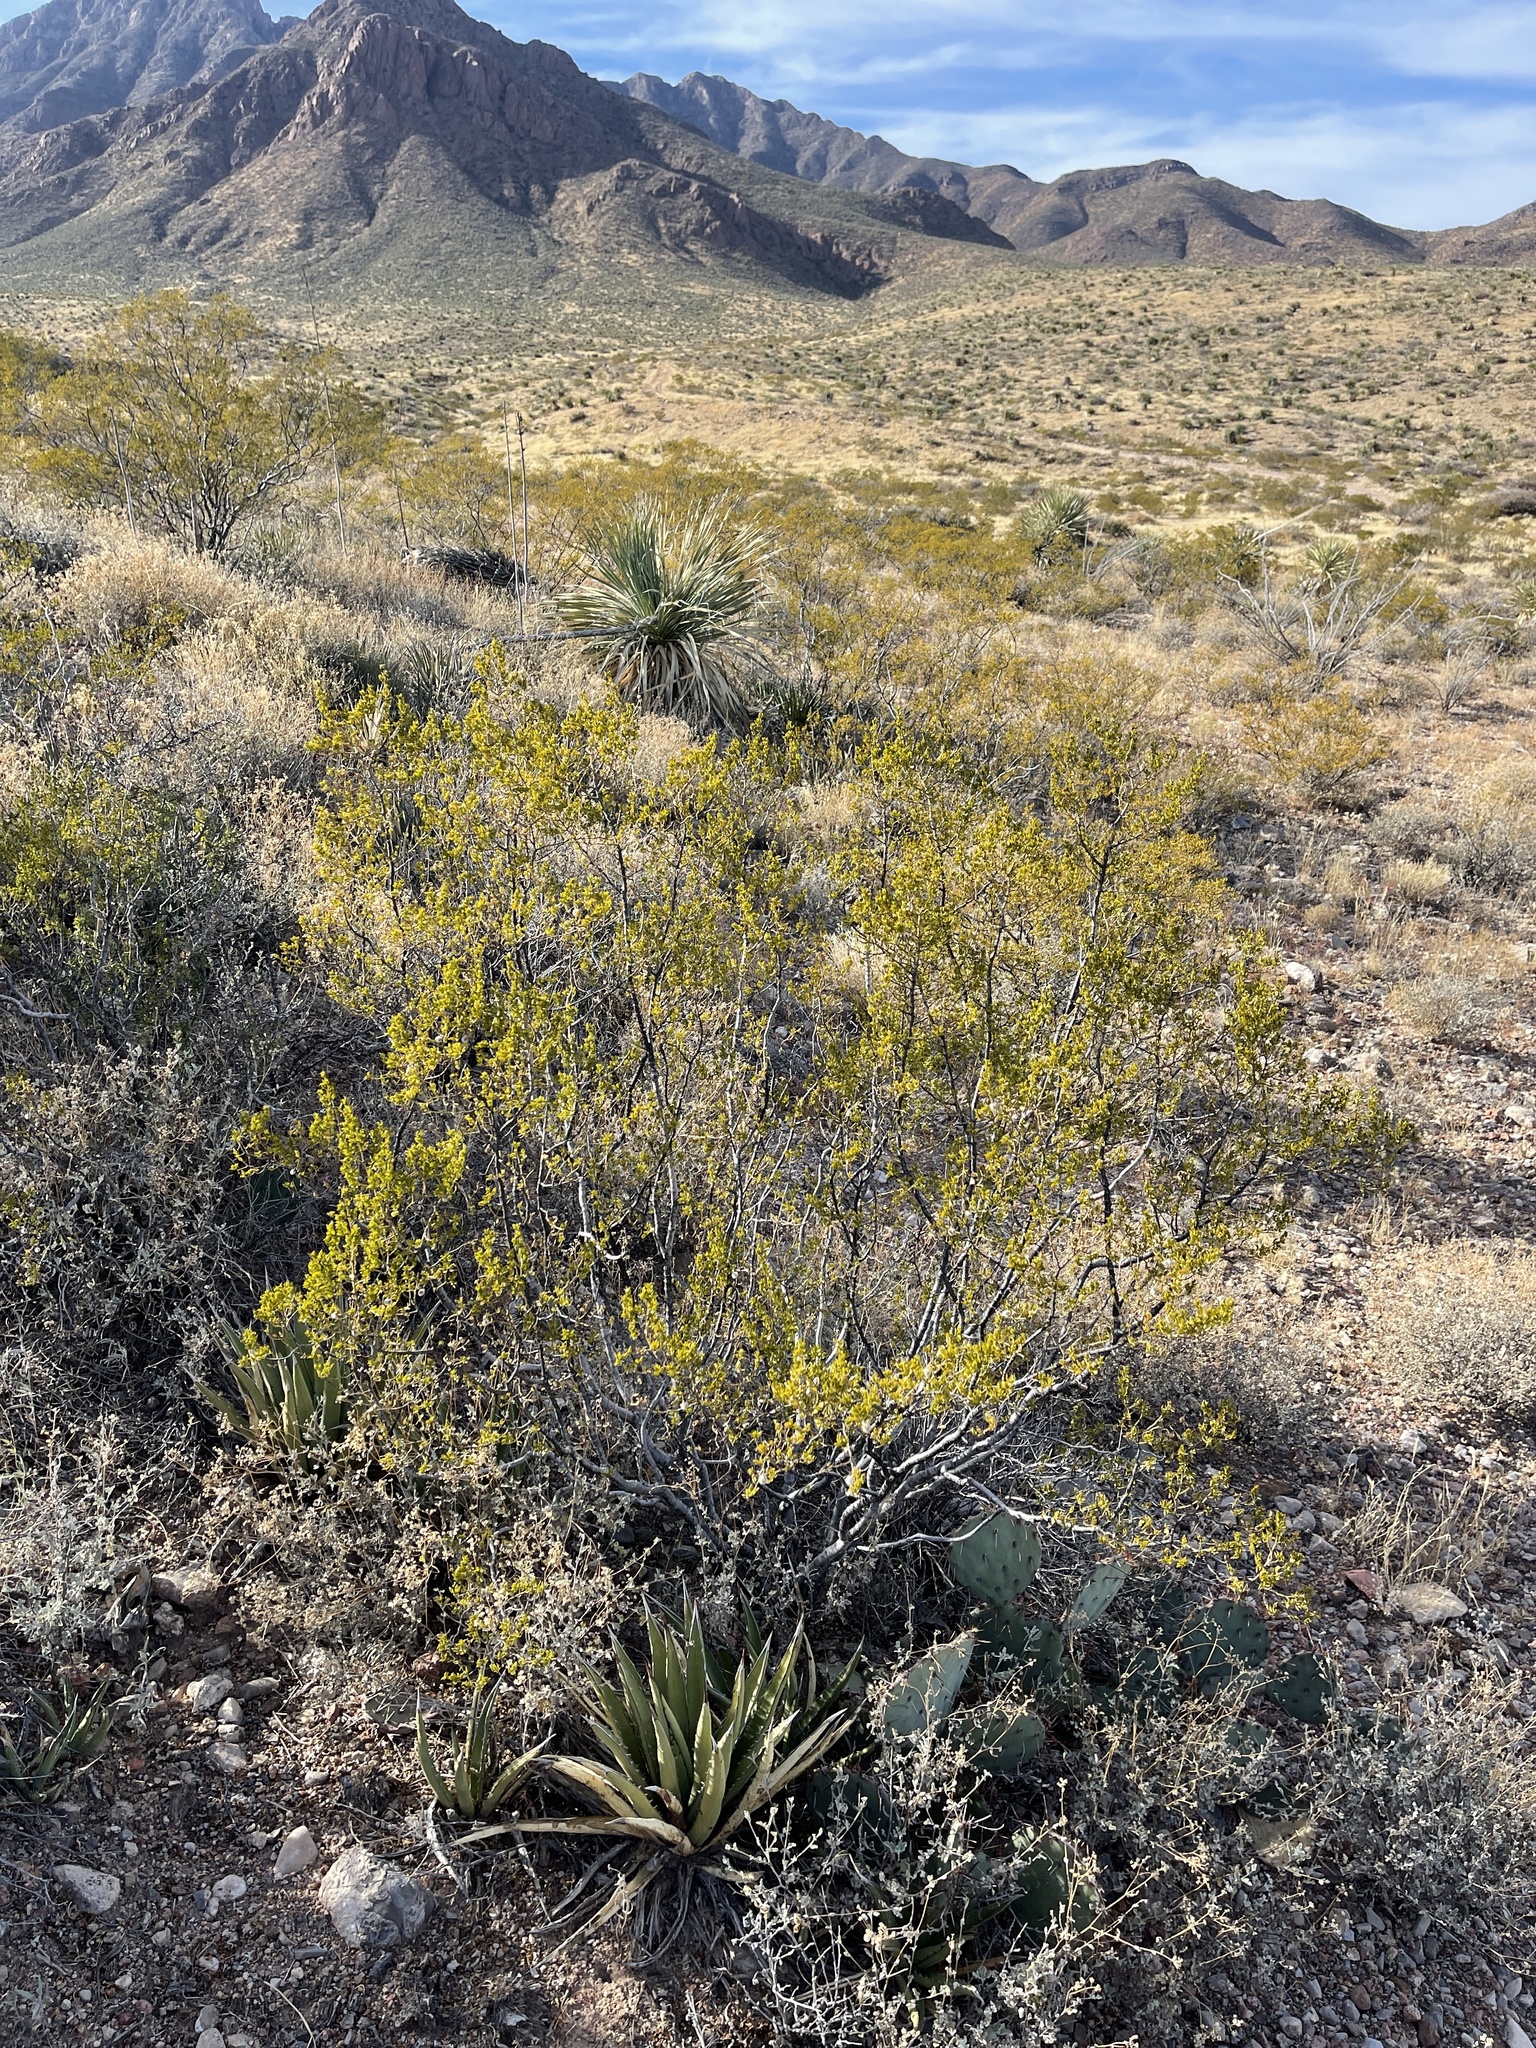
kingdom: Plantae
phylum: Tracheophyta
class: Magnoliopsida
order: Zygophyllales
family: Zygophyllaceae
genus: Larrea
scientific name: Larrea tridentata
